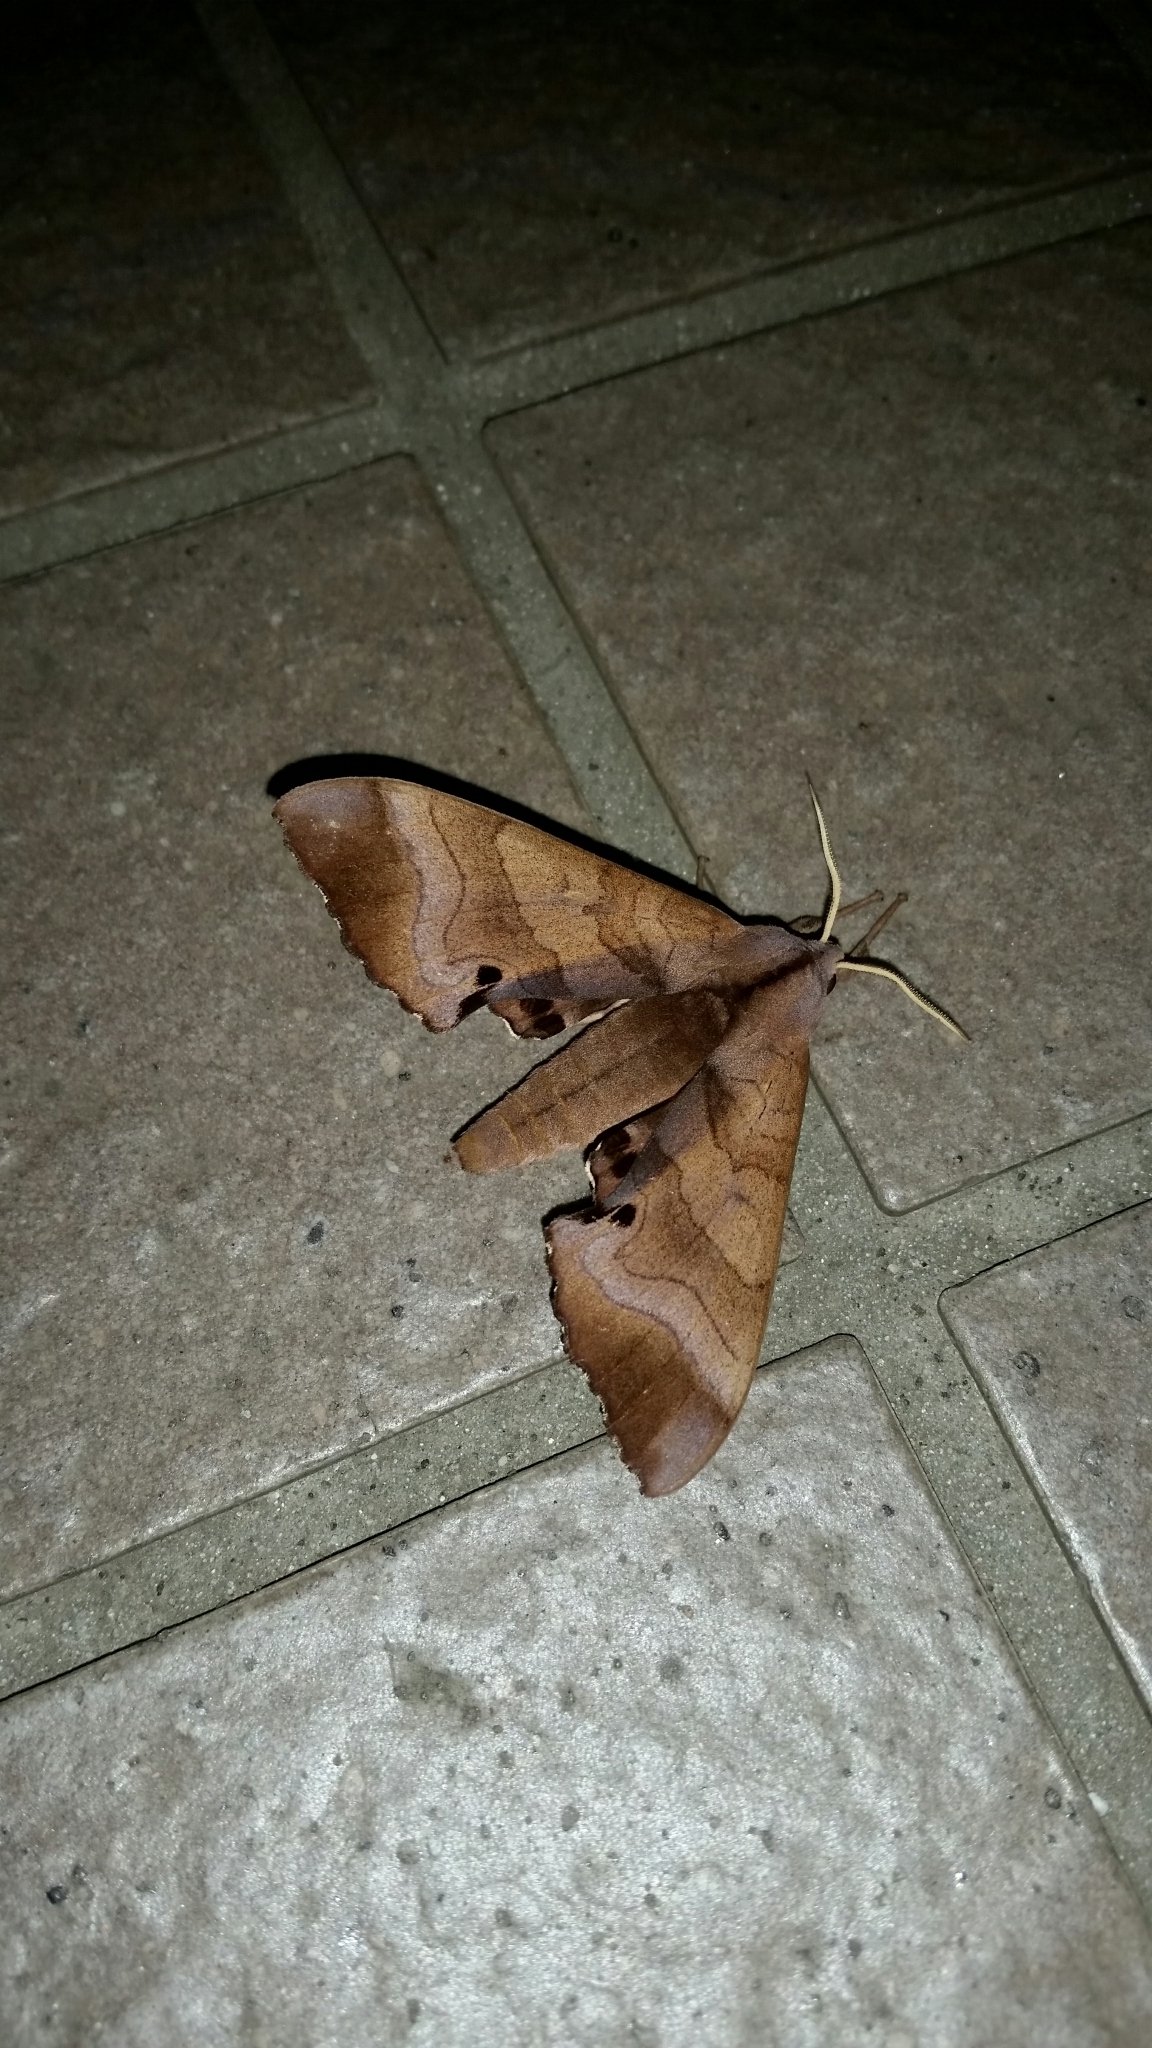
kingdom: Animalia
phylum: Arthropoda
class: Insecta
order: Lepidoptera
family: Sphingidae
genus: Marumba
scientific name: Marumba echephron
